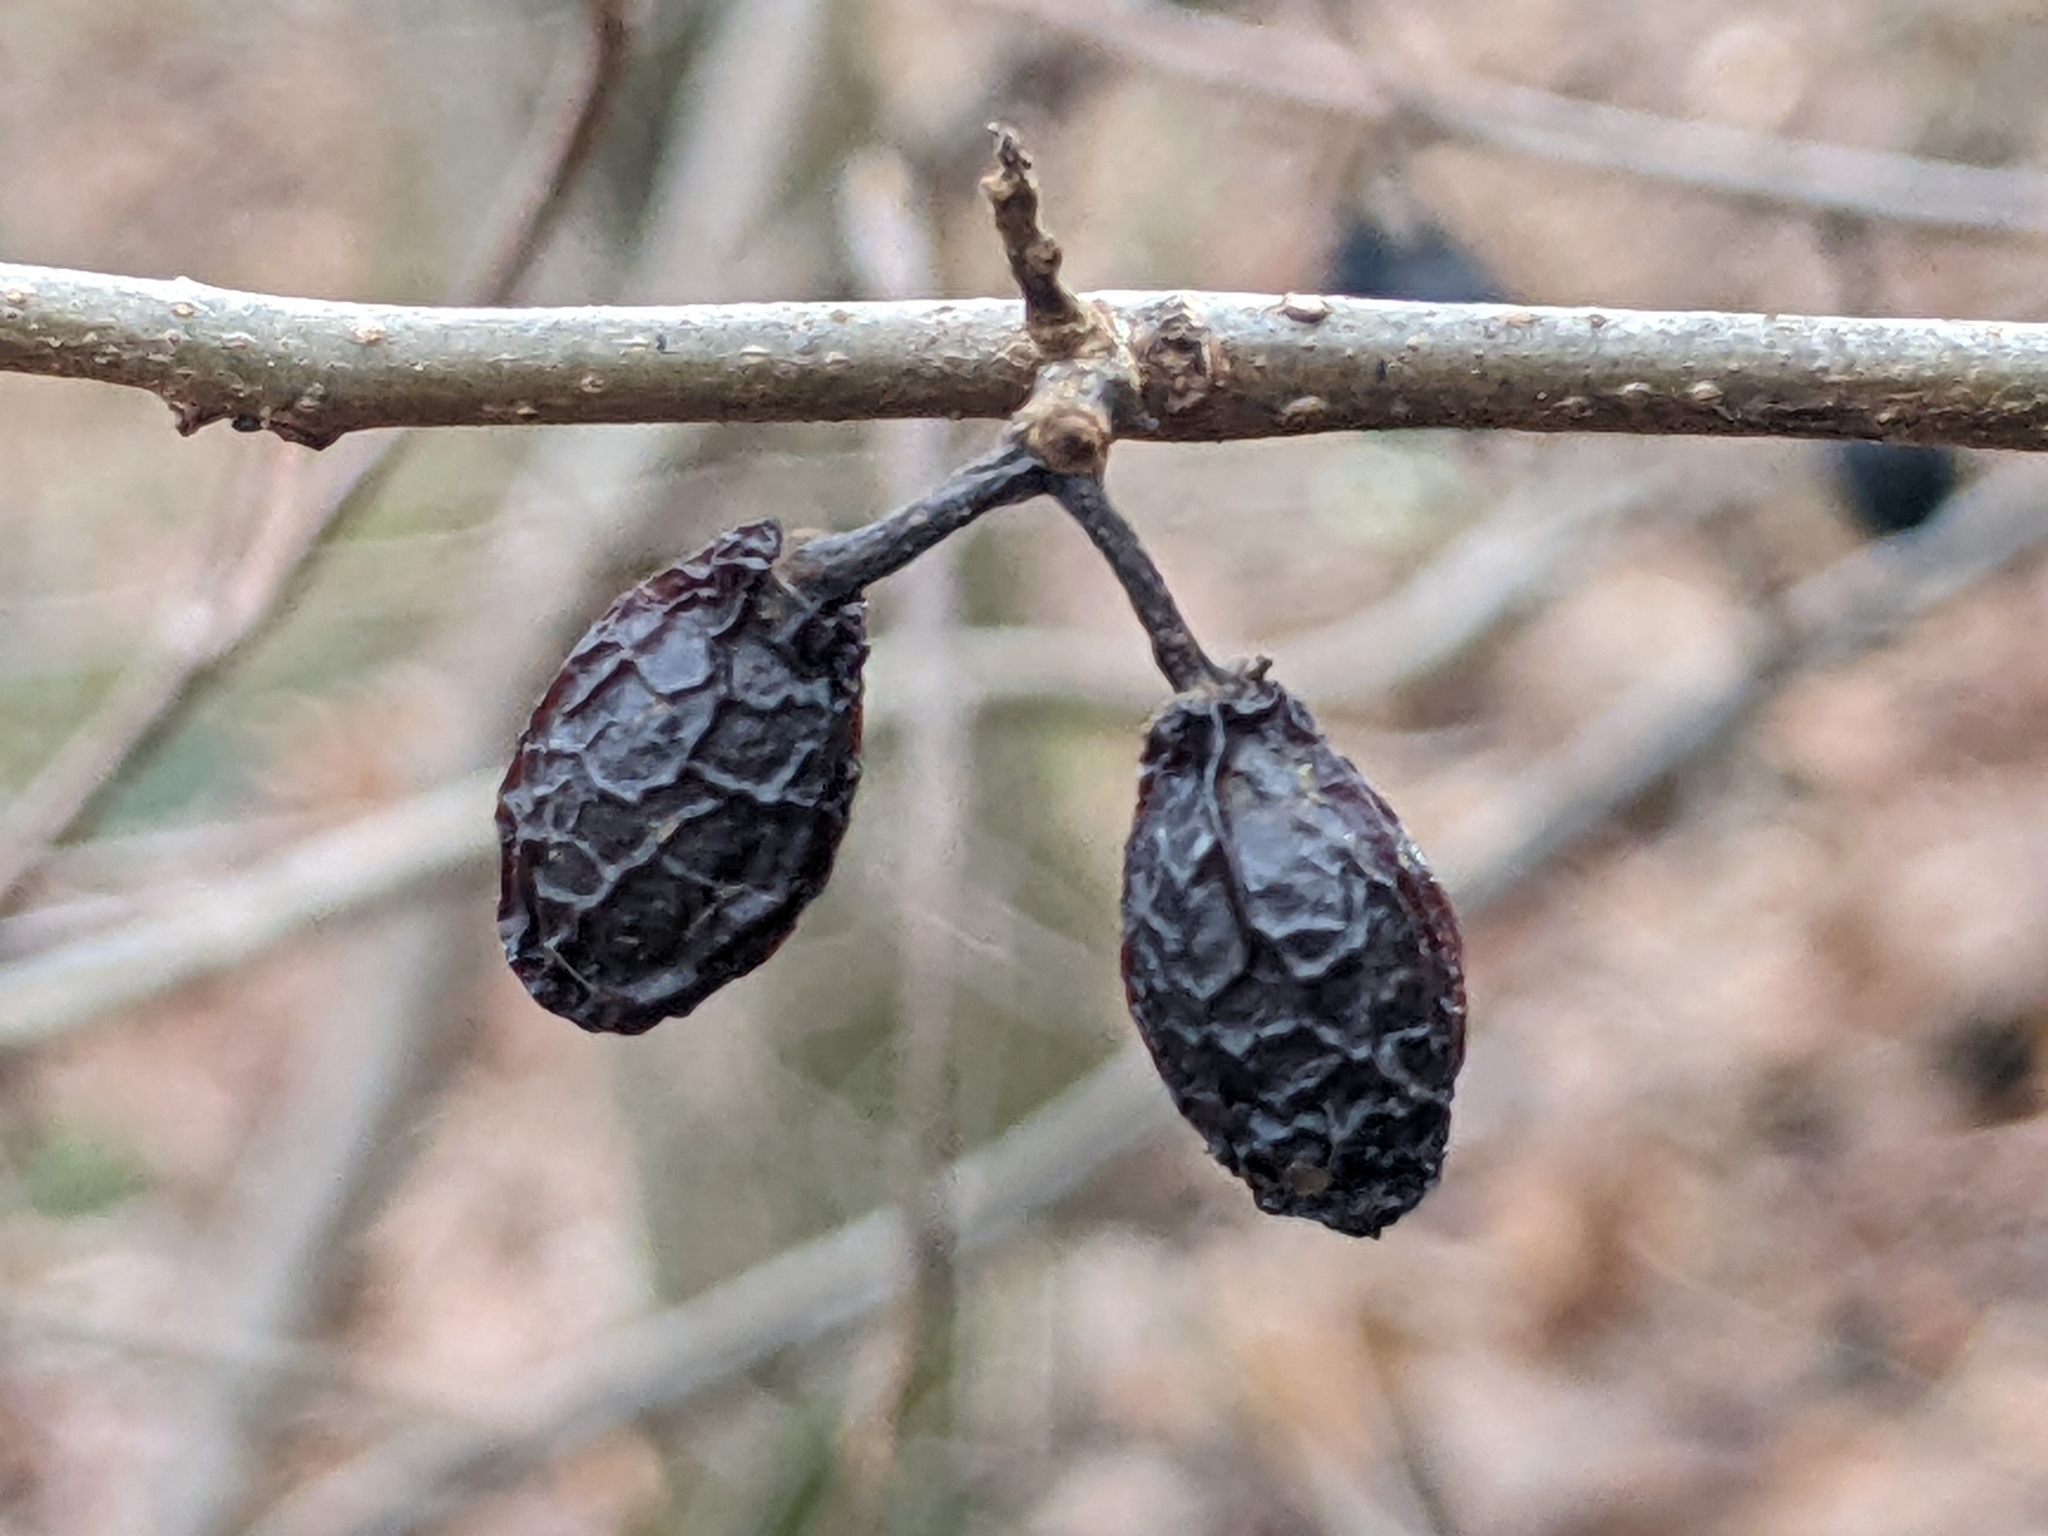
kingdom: Plantae
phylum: Tracheophyta
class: Magnoliopsida
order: Laurales
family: Lauraceae
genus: Lindera
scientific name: Lindera benzoin
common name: Spicebush
